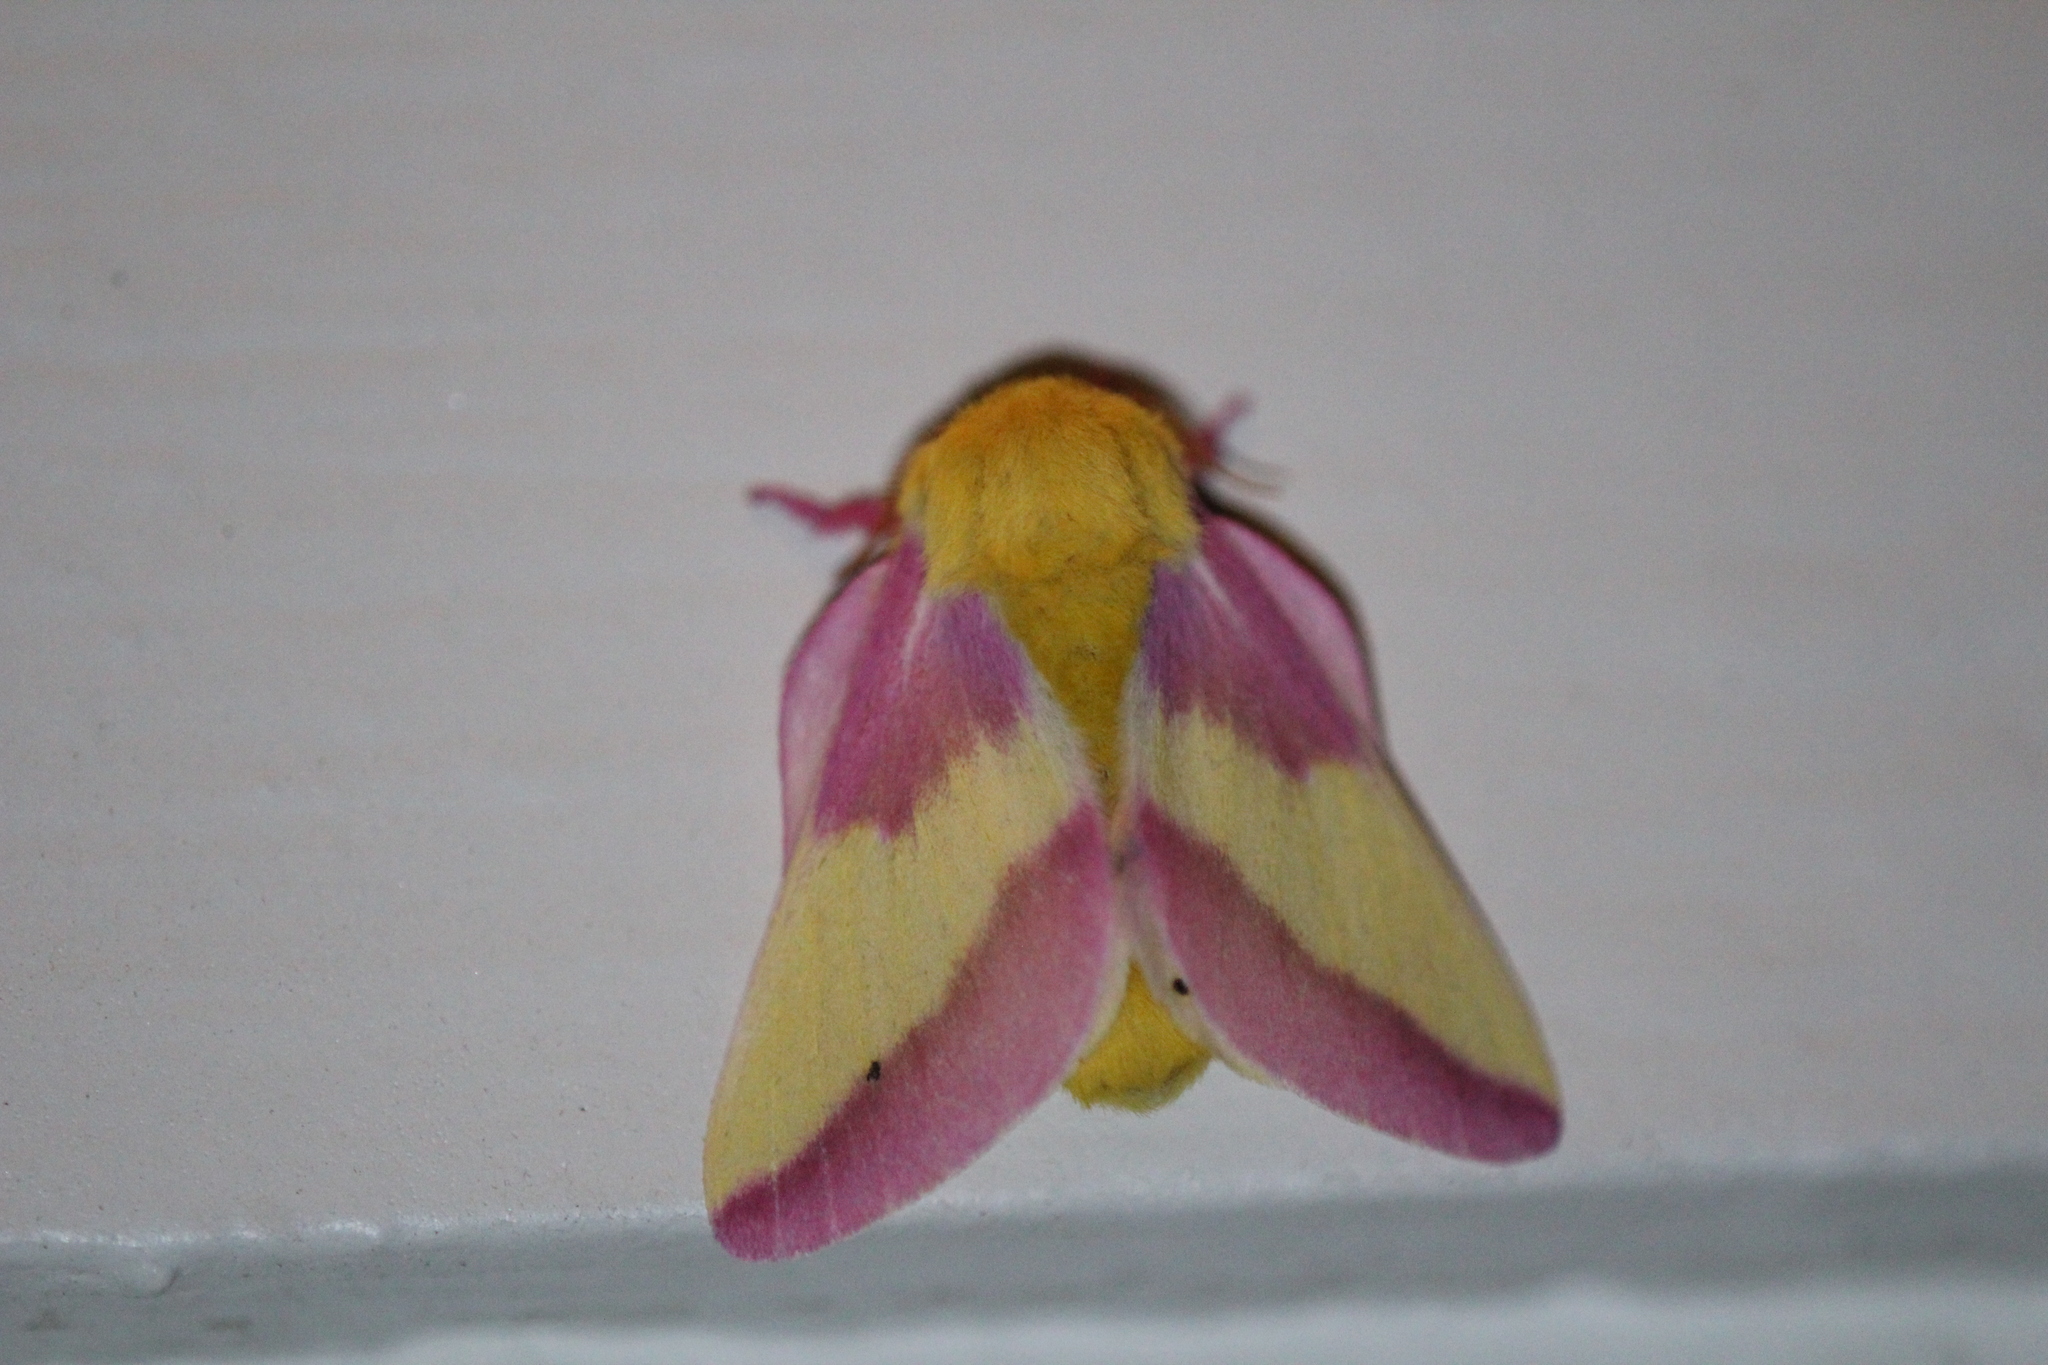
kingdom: Animalia
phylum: Arthropoda
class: Insecta
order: Lepidoptera
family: Saturniidae
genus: Dryocampa
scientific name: Dryocampa rubicunda
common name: Rosy maple moth
